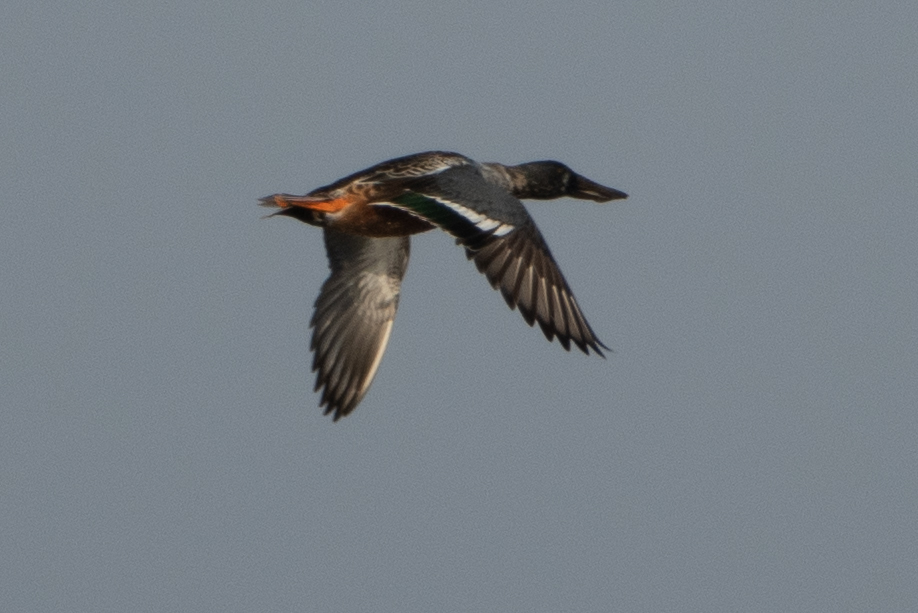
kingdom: Animalia
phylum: Chordata
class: Aves
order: Anseriformes
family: Anatidae
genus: Spatula
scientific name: Spatula clypeata
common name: Northern shoveler
